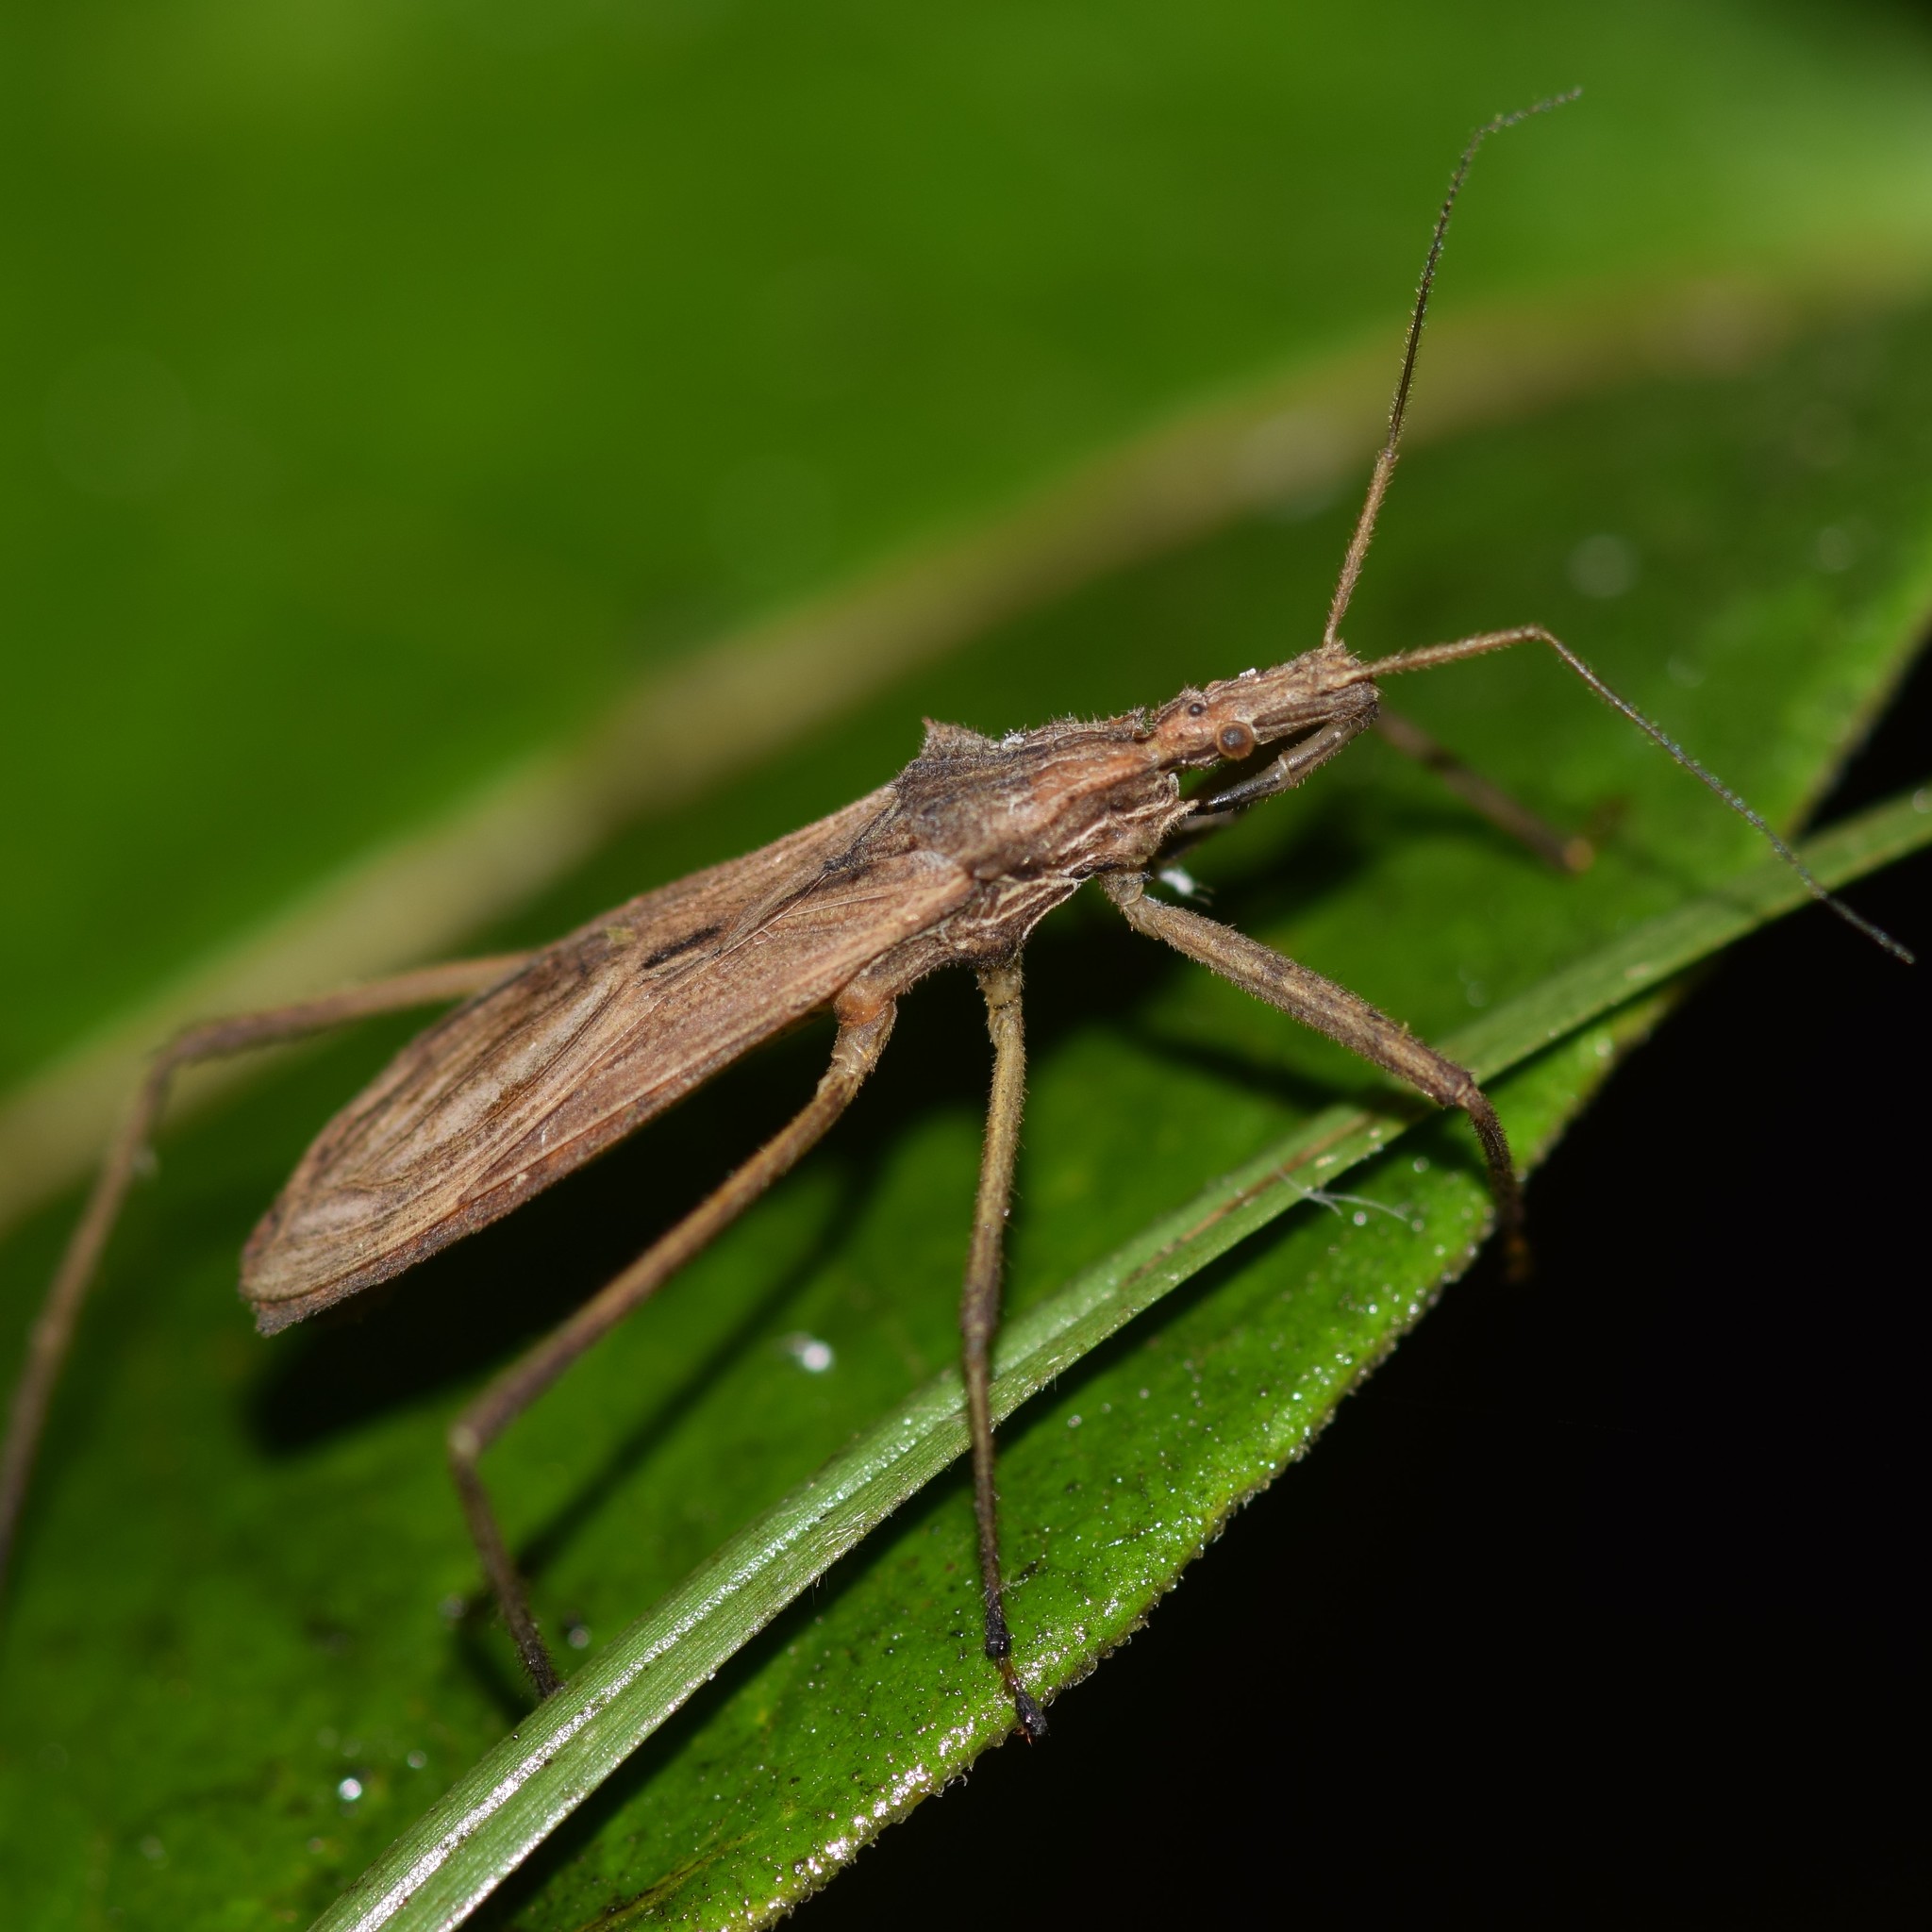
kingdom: Animalia
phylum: Arthropoda
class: Insecta
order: Hemiptera
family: Reduviidae
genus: Stenopoda
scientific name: Stenopoda spinulosa
